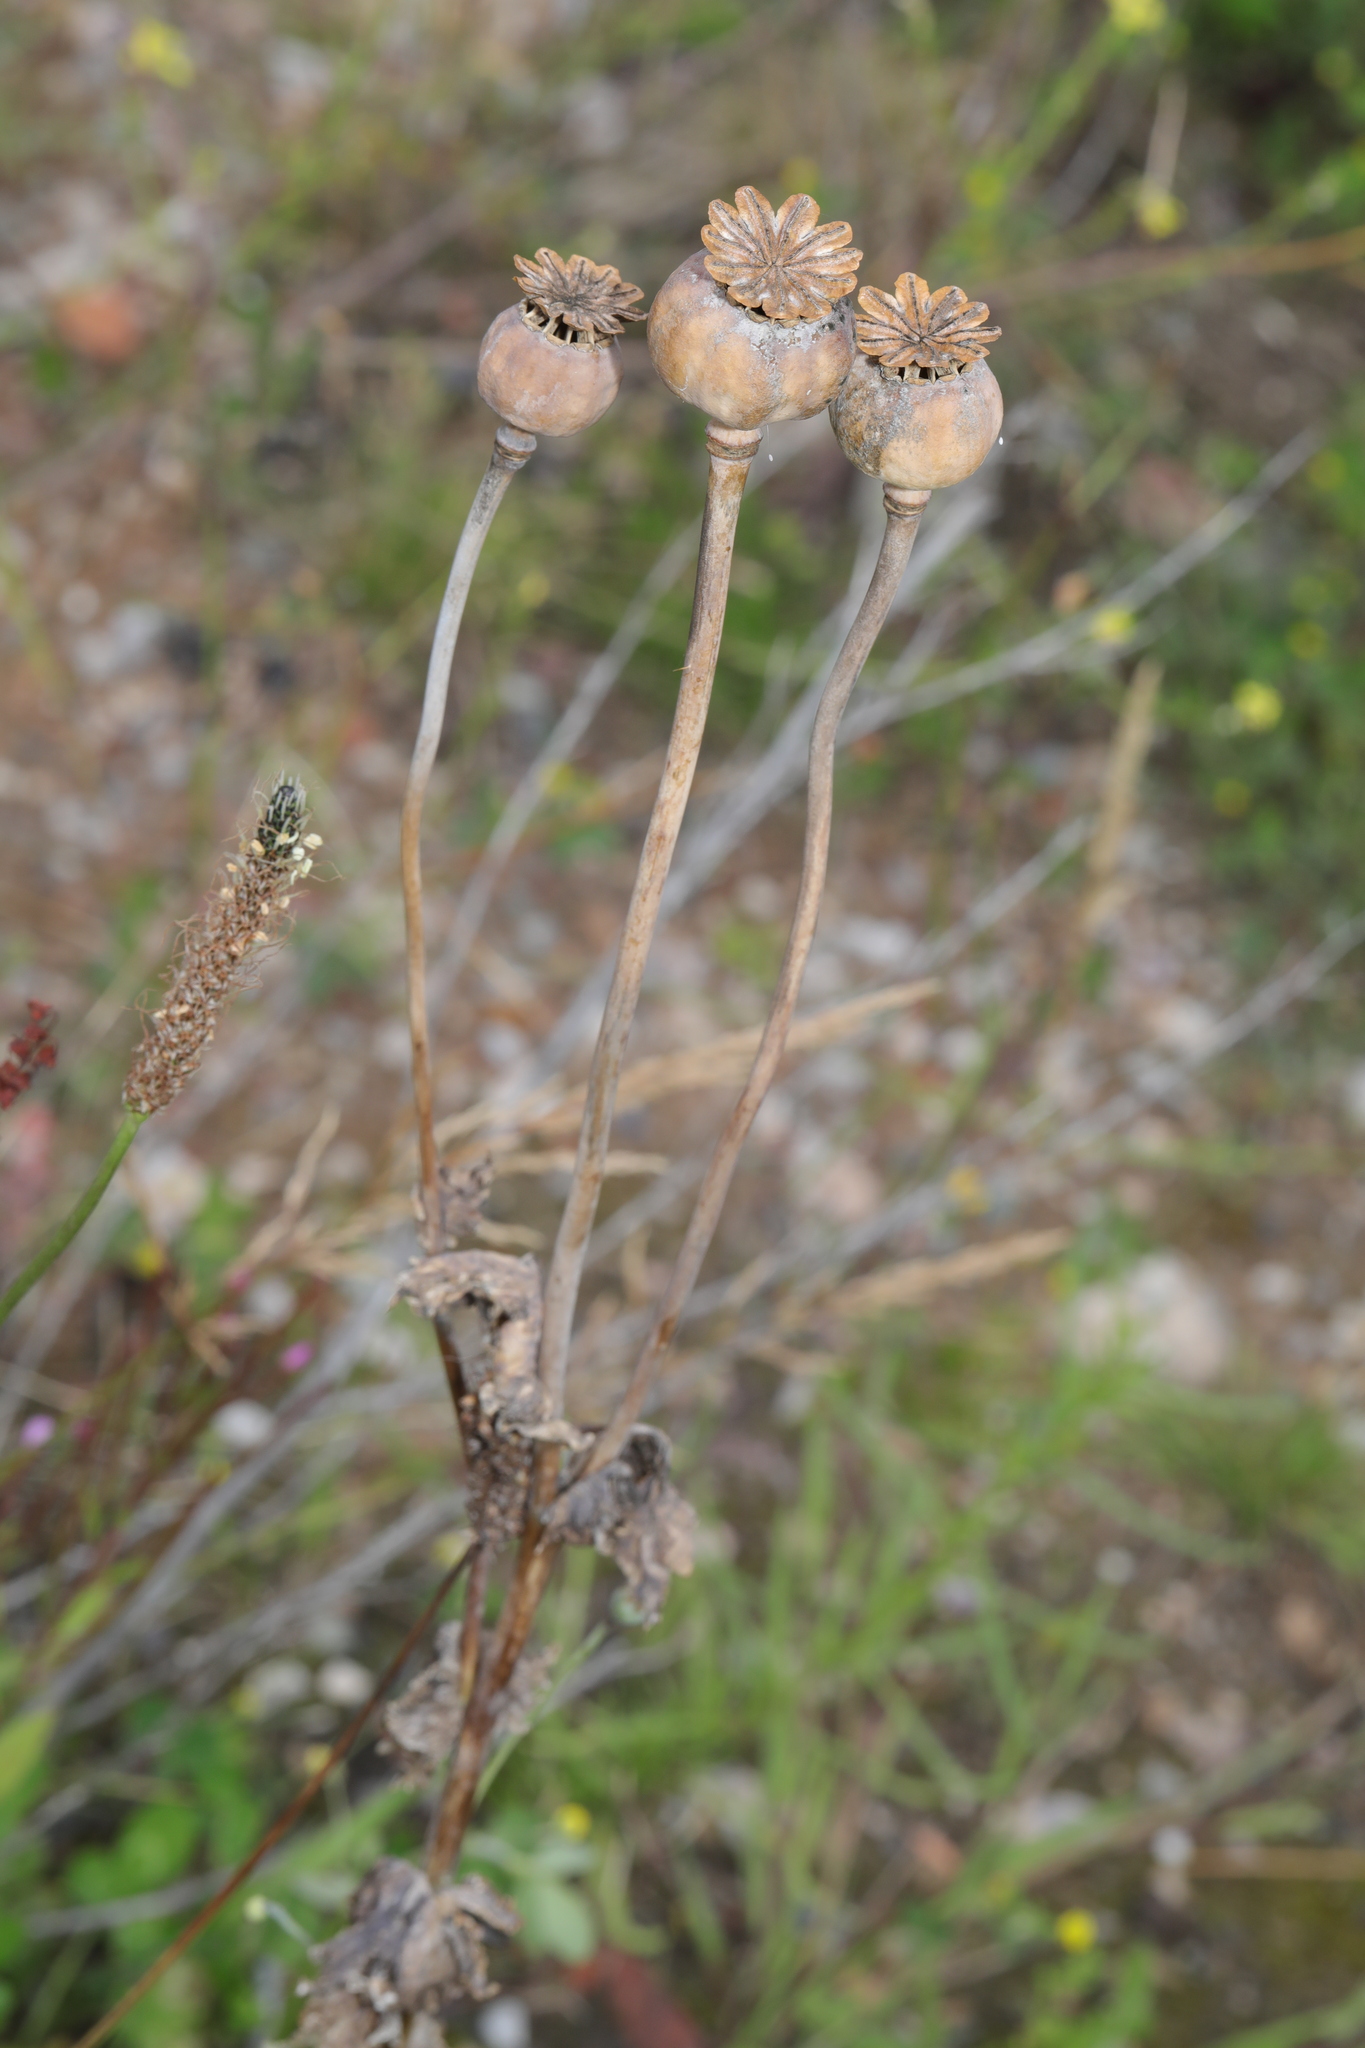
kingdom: Plantae
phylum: Tracheophyta
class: Magnoliopsida
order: Ranunculales
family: Papaveraceae
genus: Papaver
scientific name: Papaver somniferum
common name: Opium poppy
